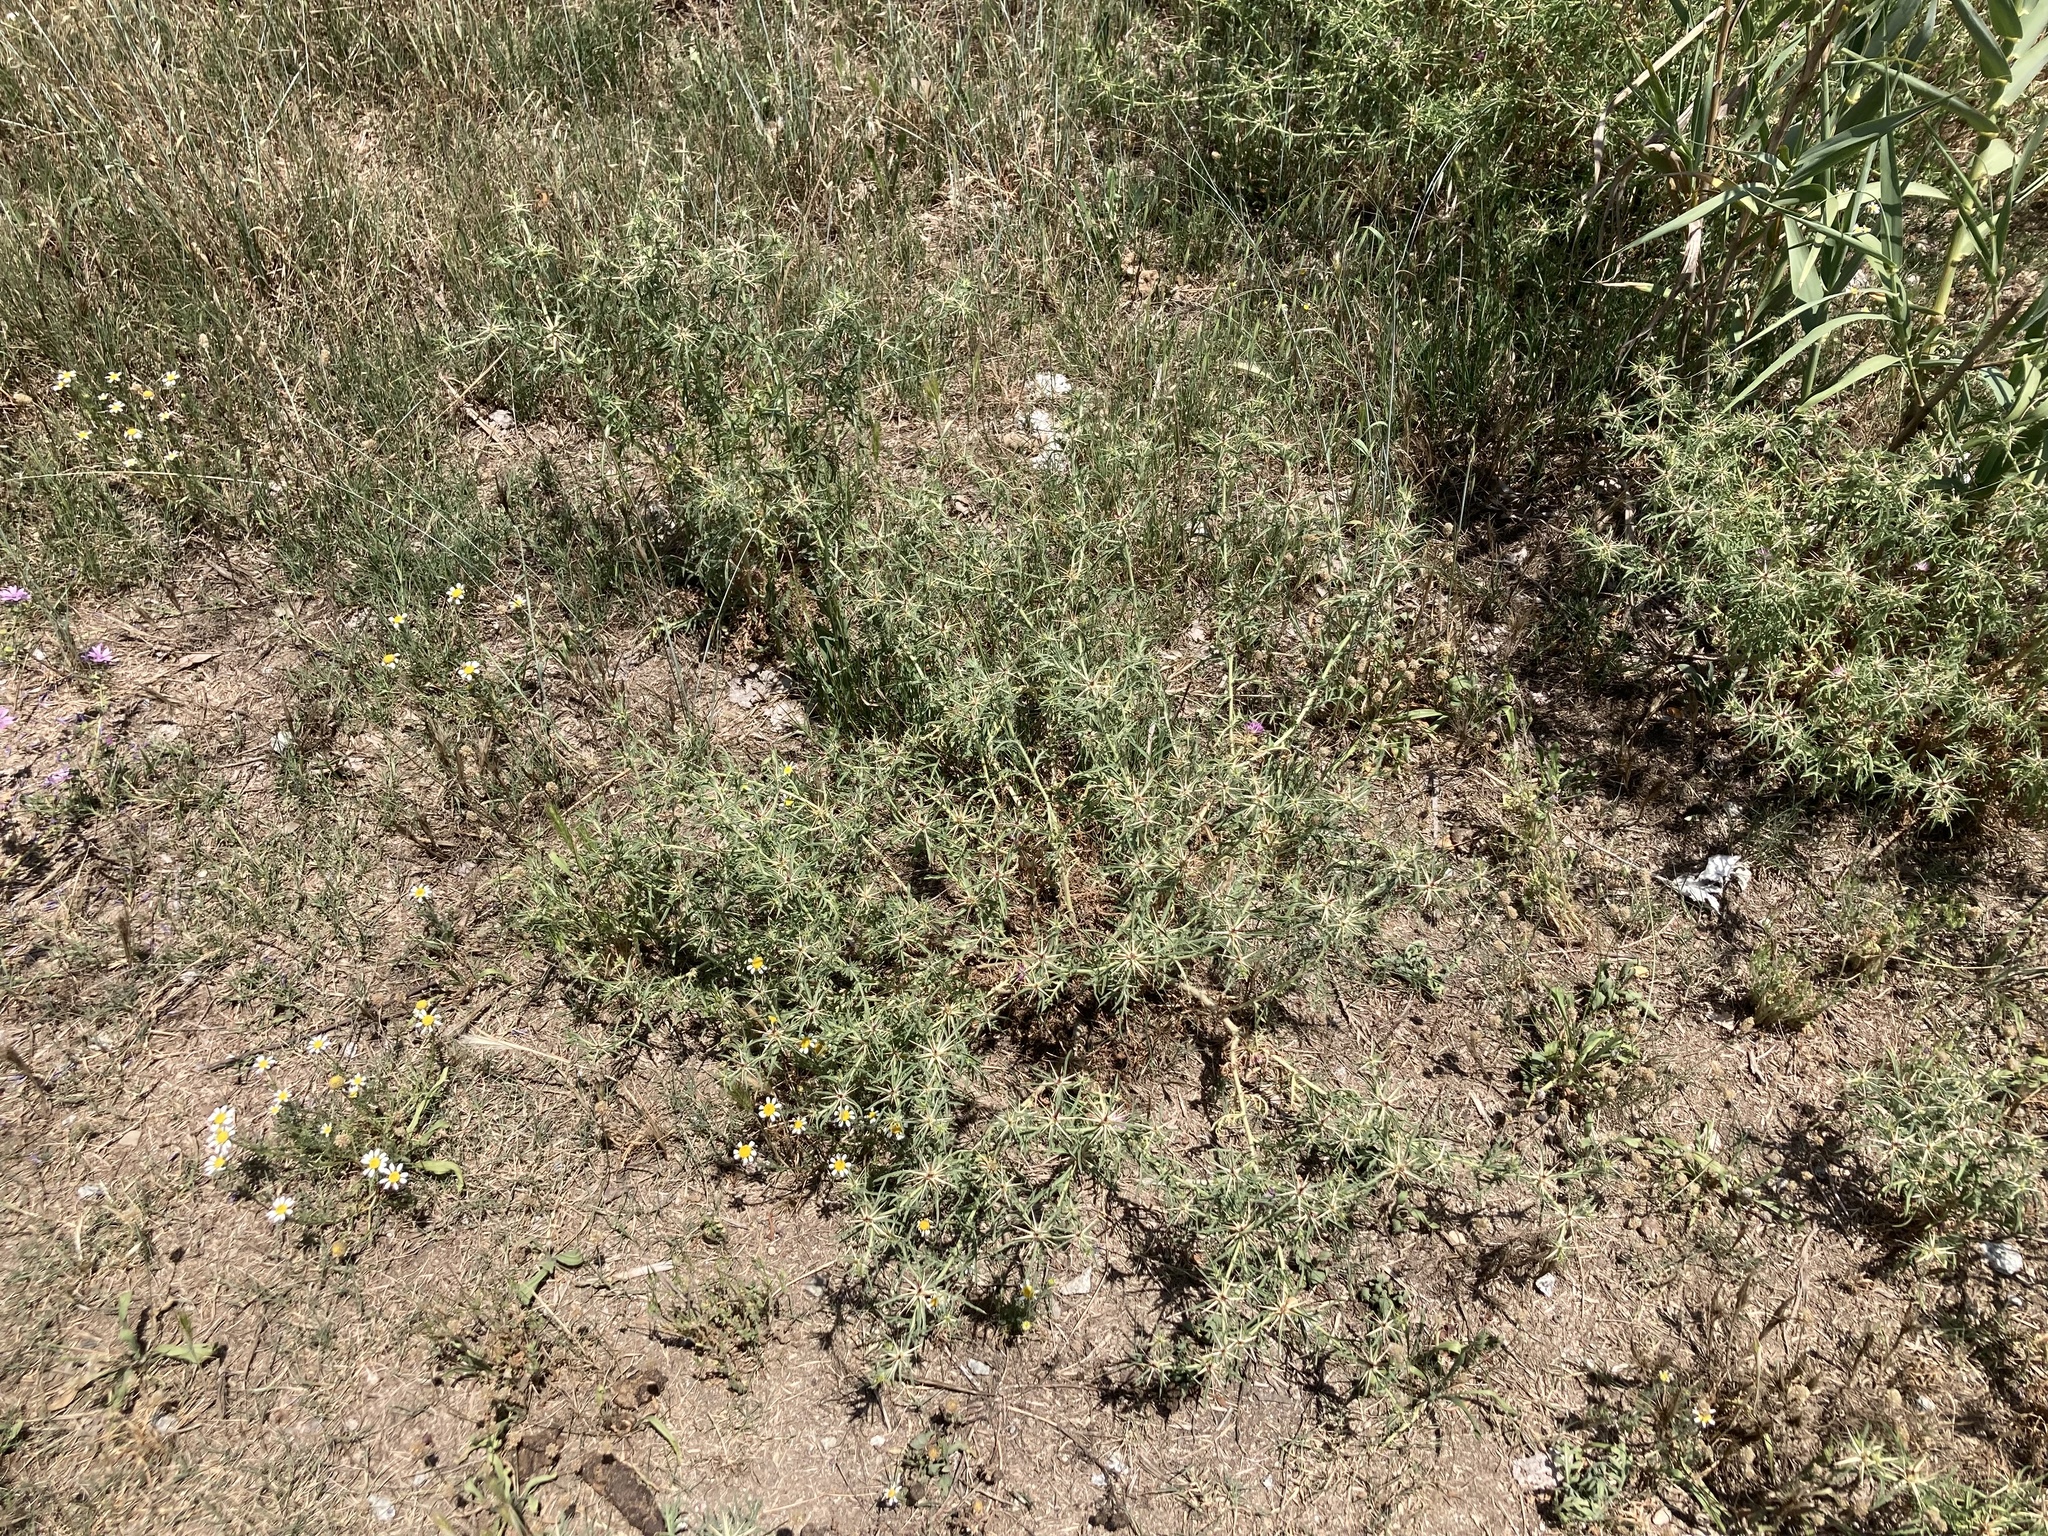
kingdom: Plantae
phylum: Tracheophyta
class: Magnoliopsida
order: Asterales
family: Asteraceae
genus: Centaurea
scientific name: Centaurea calcitrapa
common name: Red star-thistle
